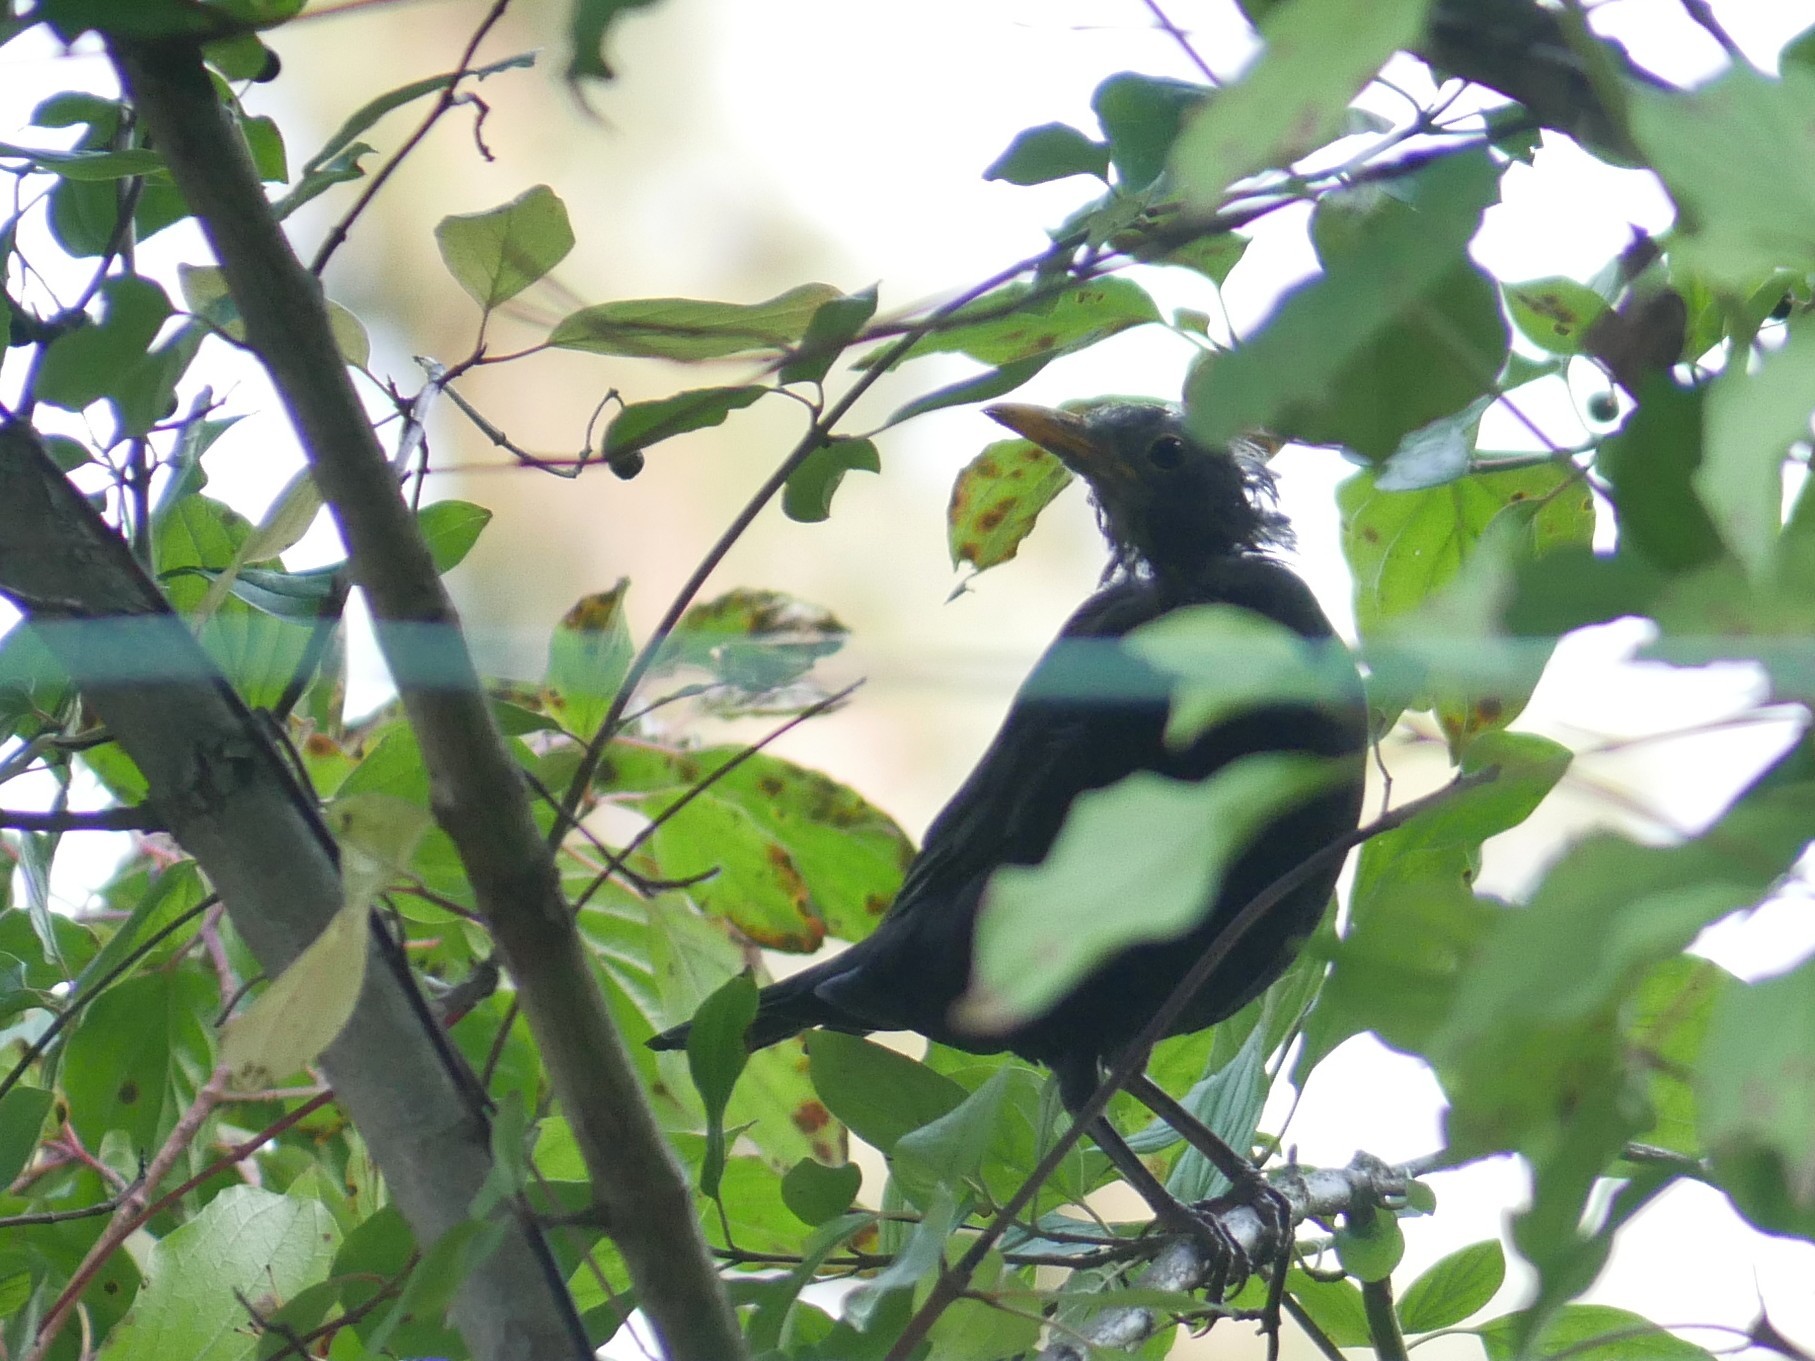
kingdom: Animalia
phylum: Chordata
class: Aves
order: Passeriformes
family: Turdidae
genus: Turdus
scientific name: Turdus merula
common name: Common blackbird
